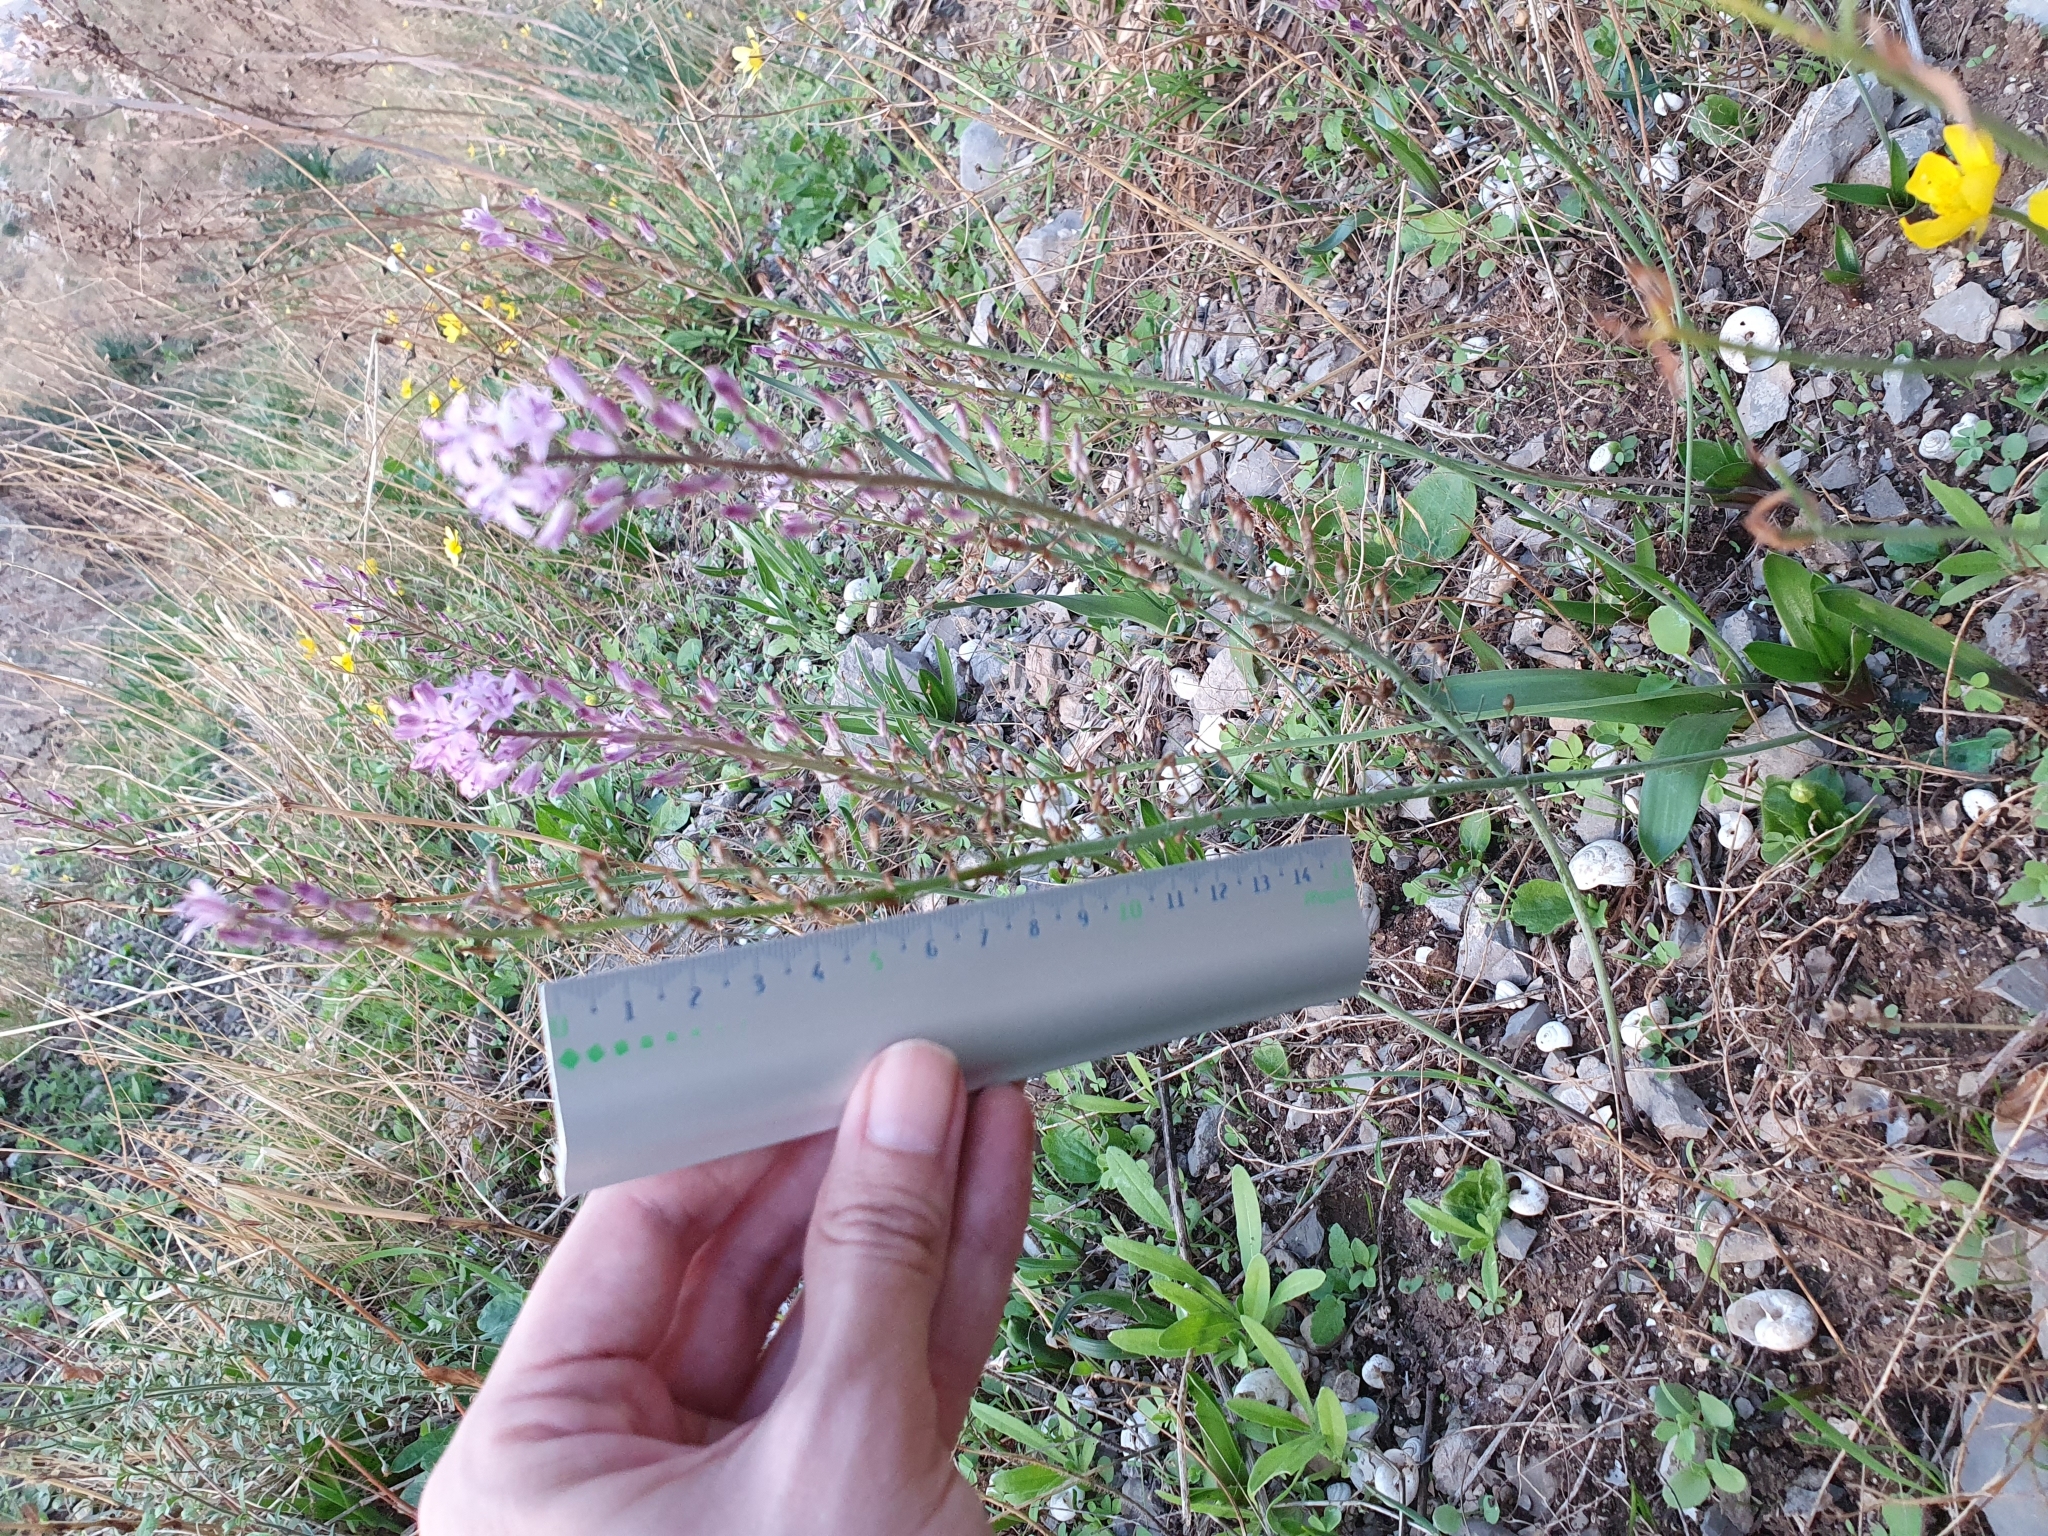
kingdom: Plantae
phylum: Tracheophyta
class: Liliopsida
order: Asparagales
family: Asparagaceae
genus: Prospero
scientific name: Prospero obtusifolium
